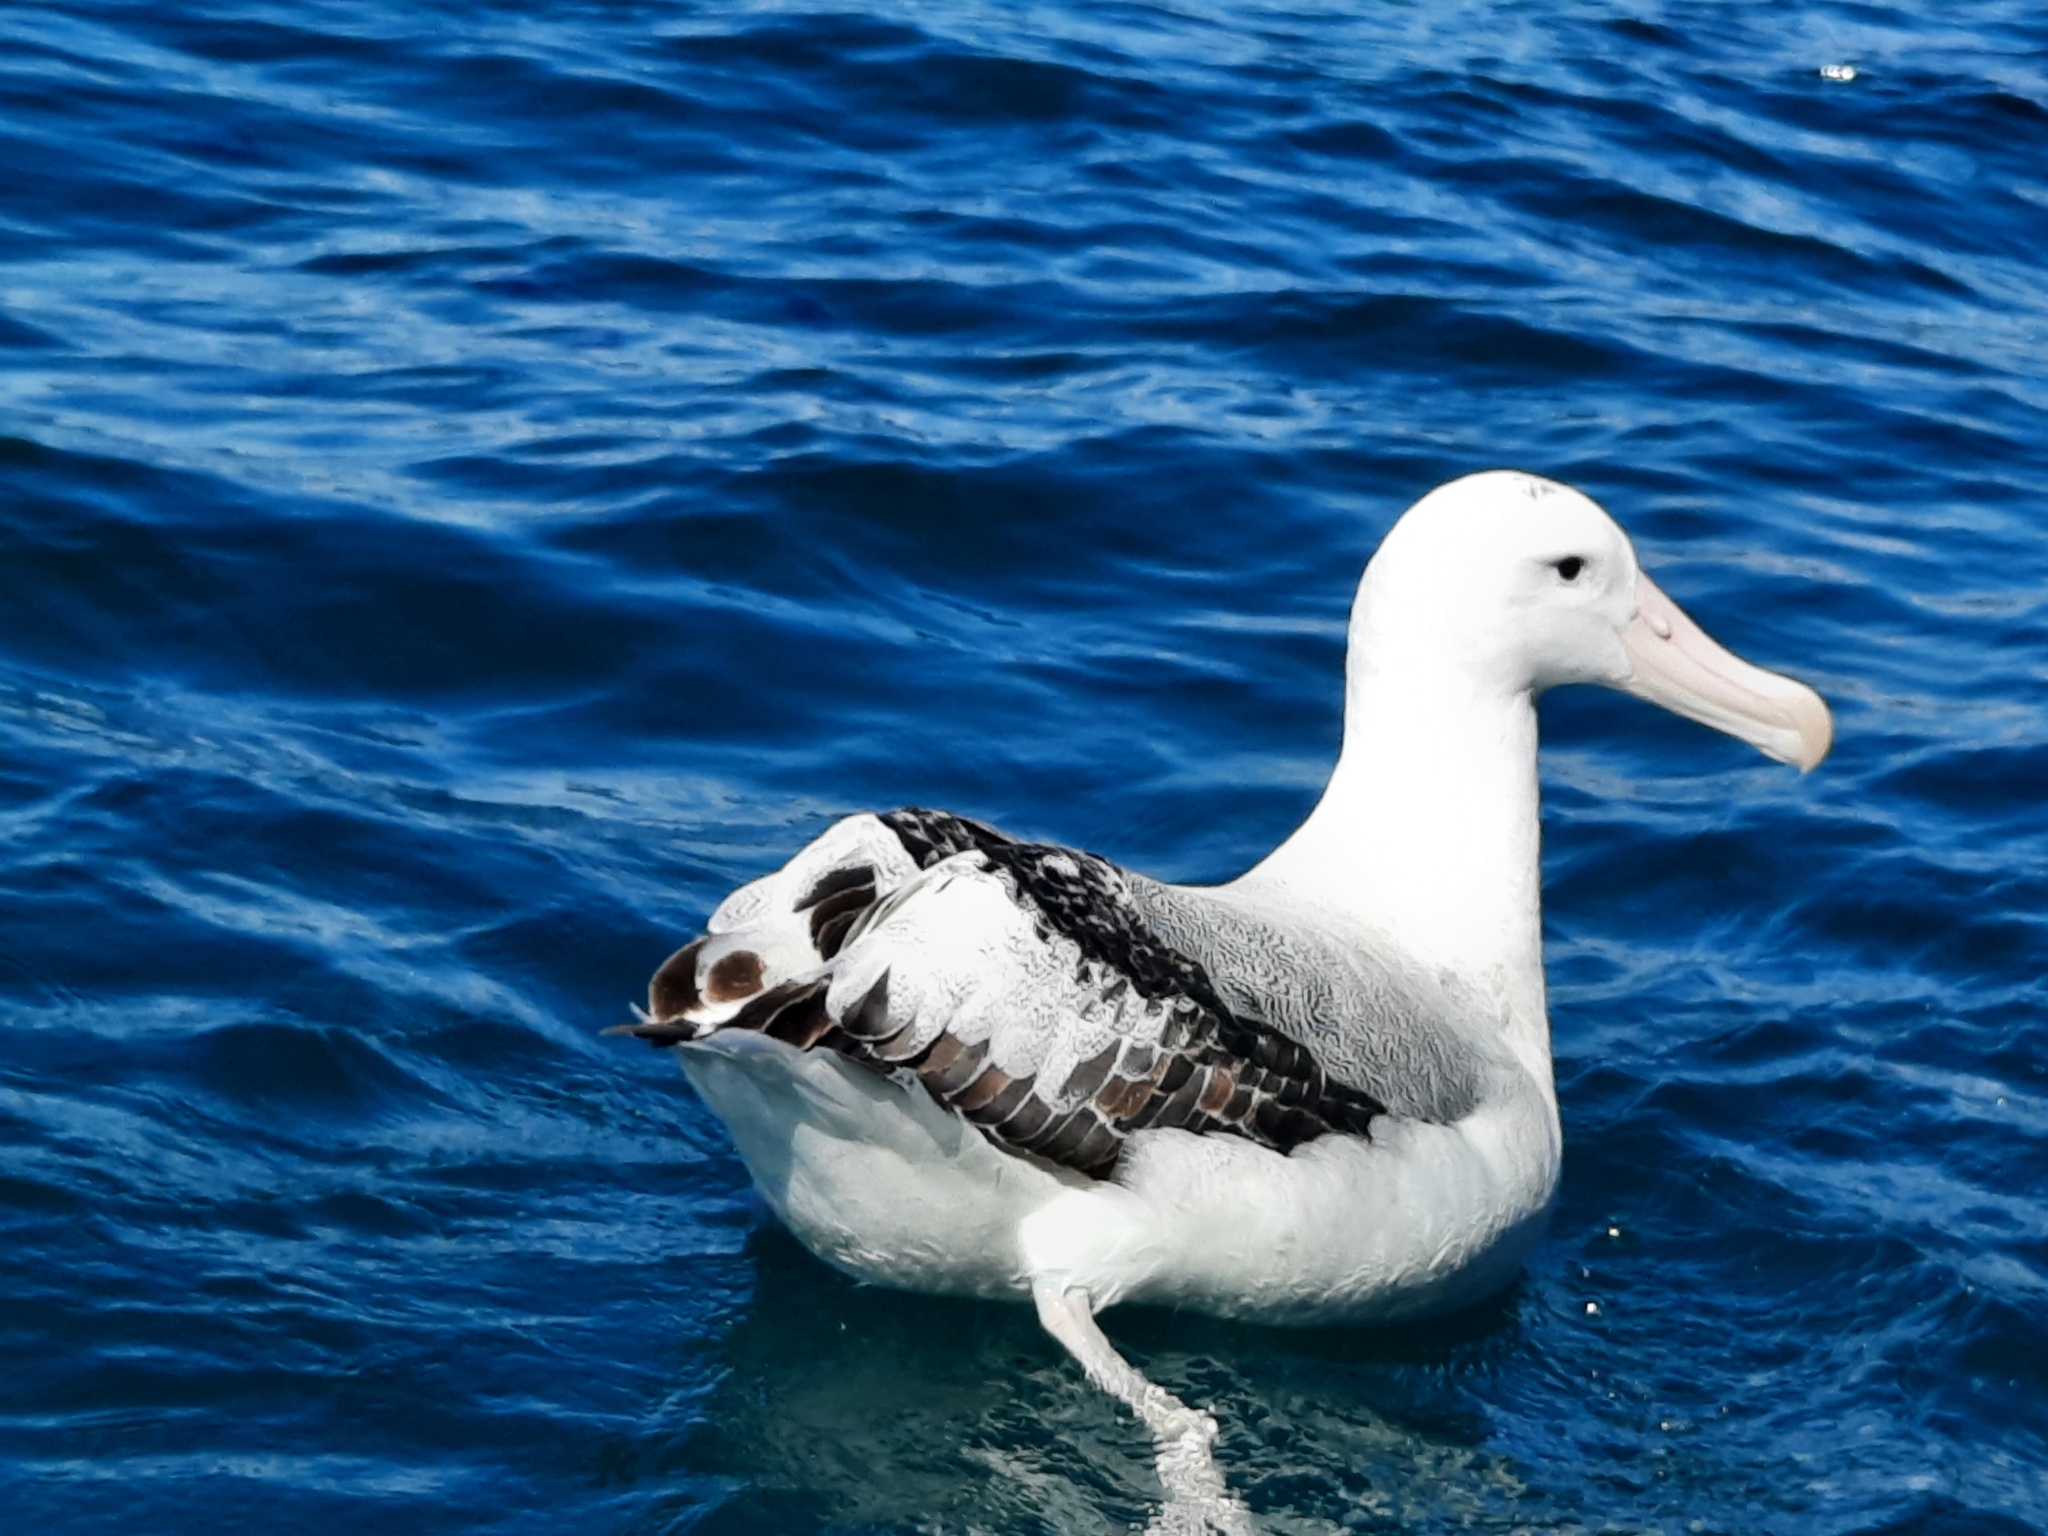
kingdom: Animalia
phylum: Chordata
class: Aves
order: Procellariiformes
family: Diomedeidae
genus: Diomedea
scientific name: Diomedea antipodensis
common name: Antipodean albatross
